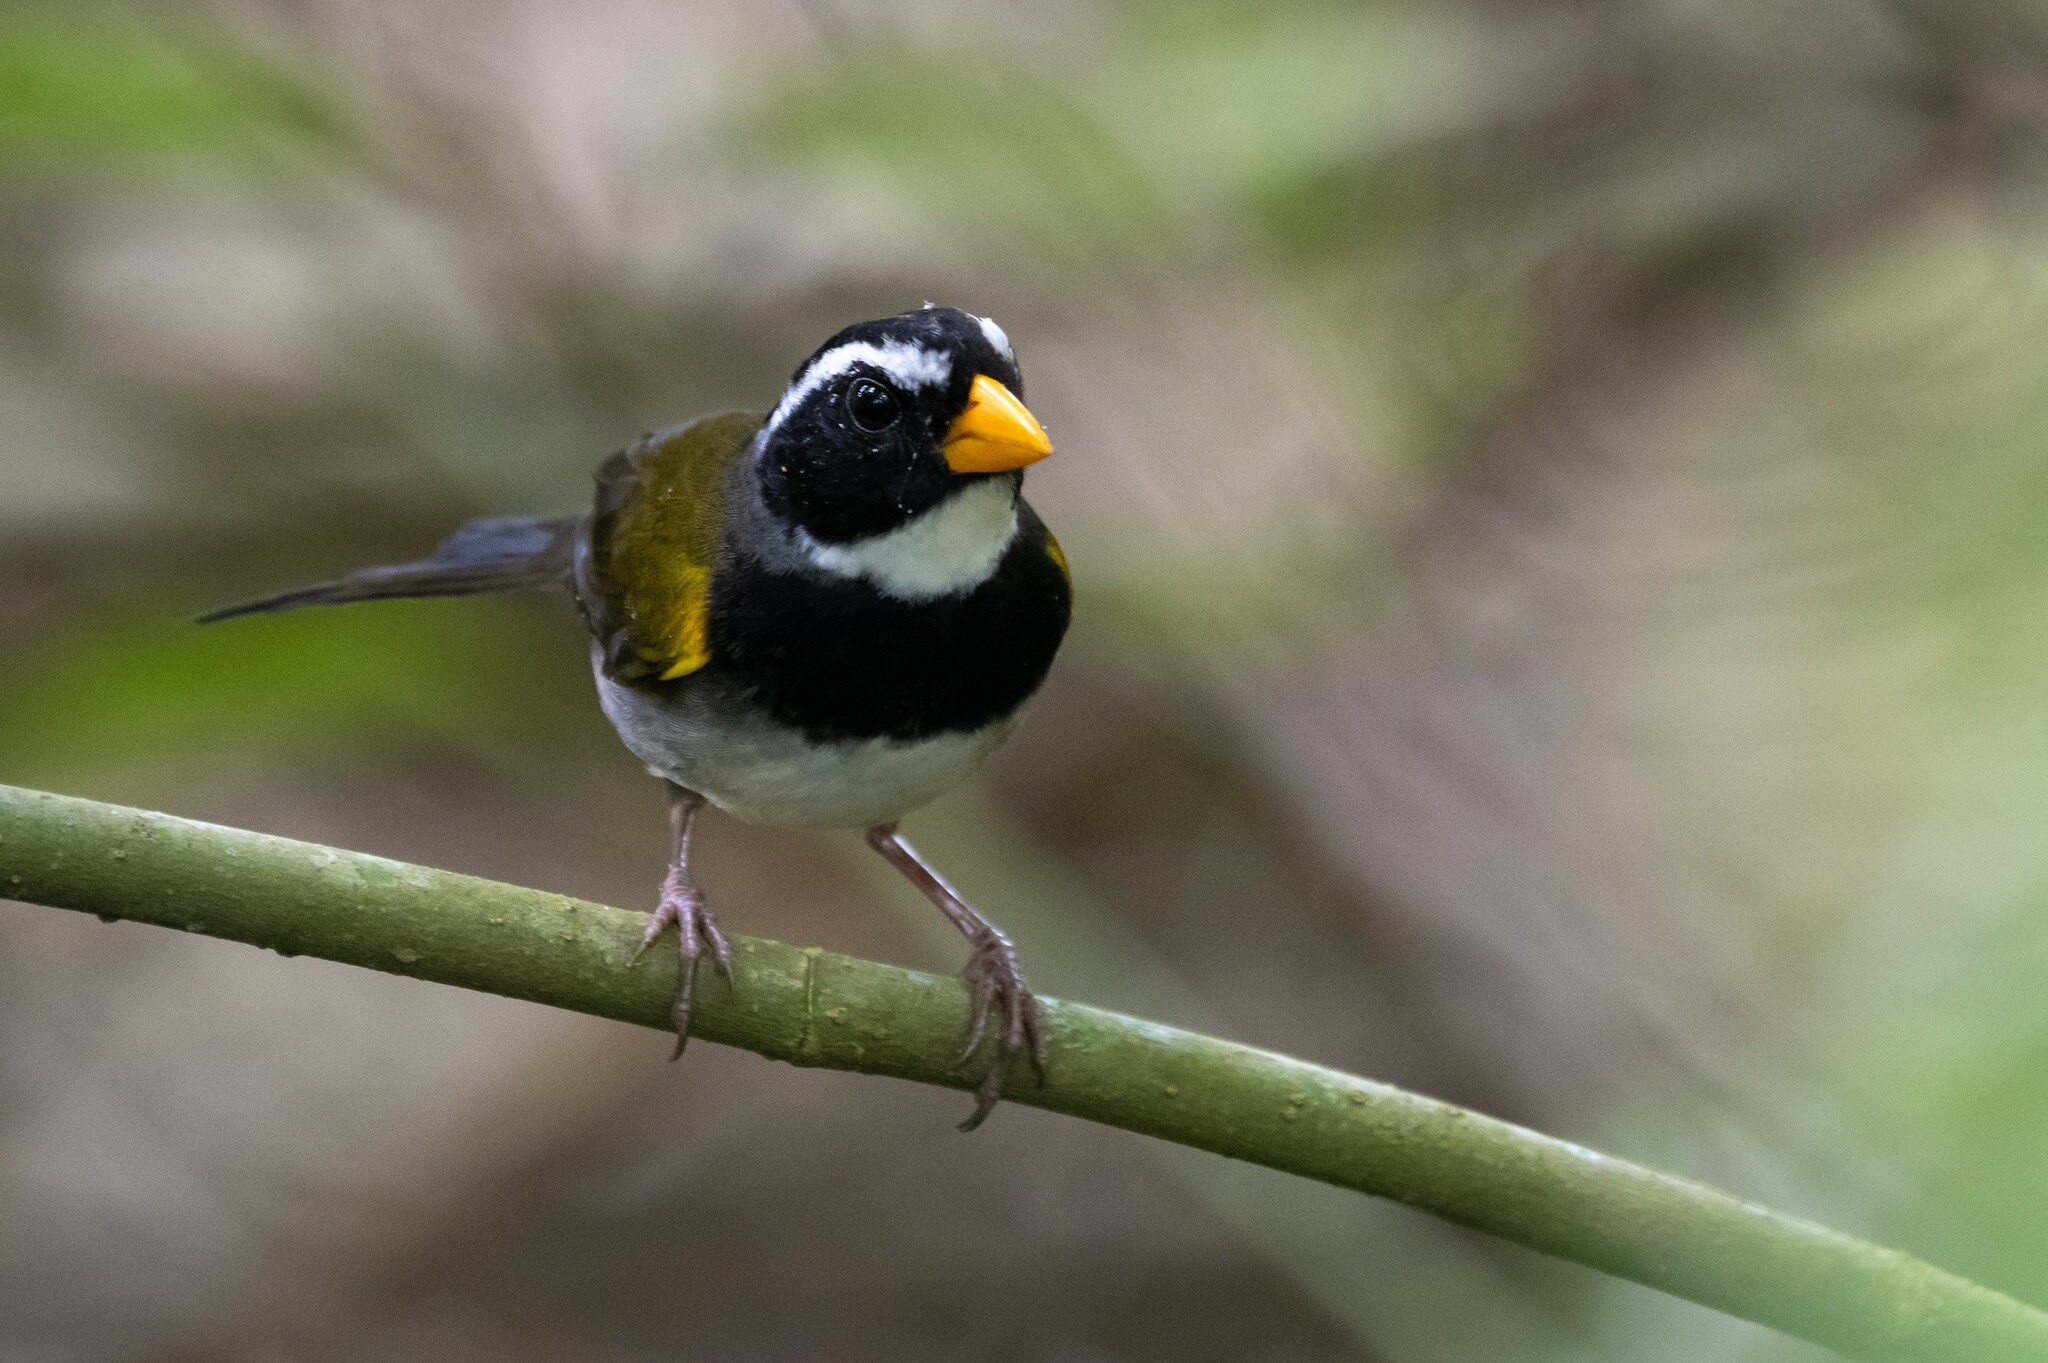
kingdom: Animalia
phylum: Chordata
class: Aves
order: Passeriformes
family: Passerellidae
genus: Arremon
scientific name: Arremon aurantiirostris
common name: Orange-billed sparrow
